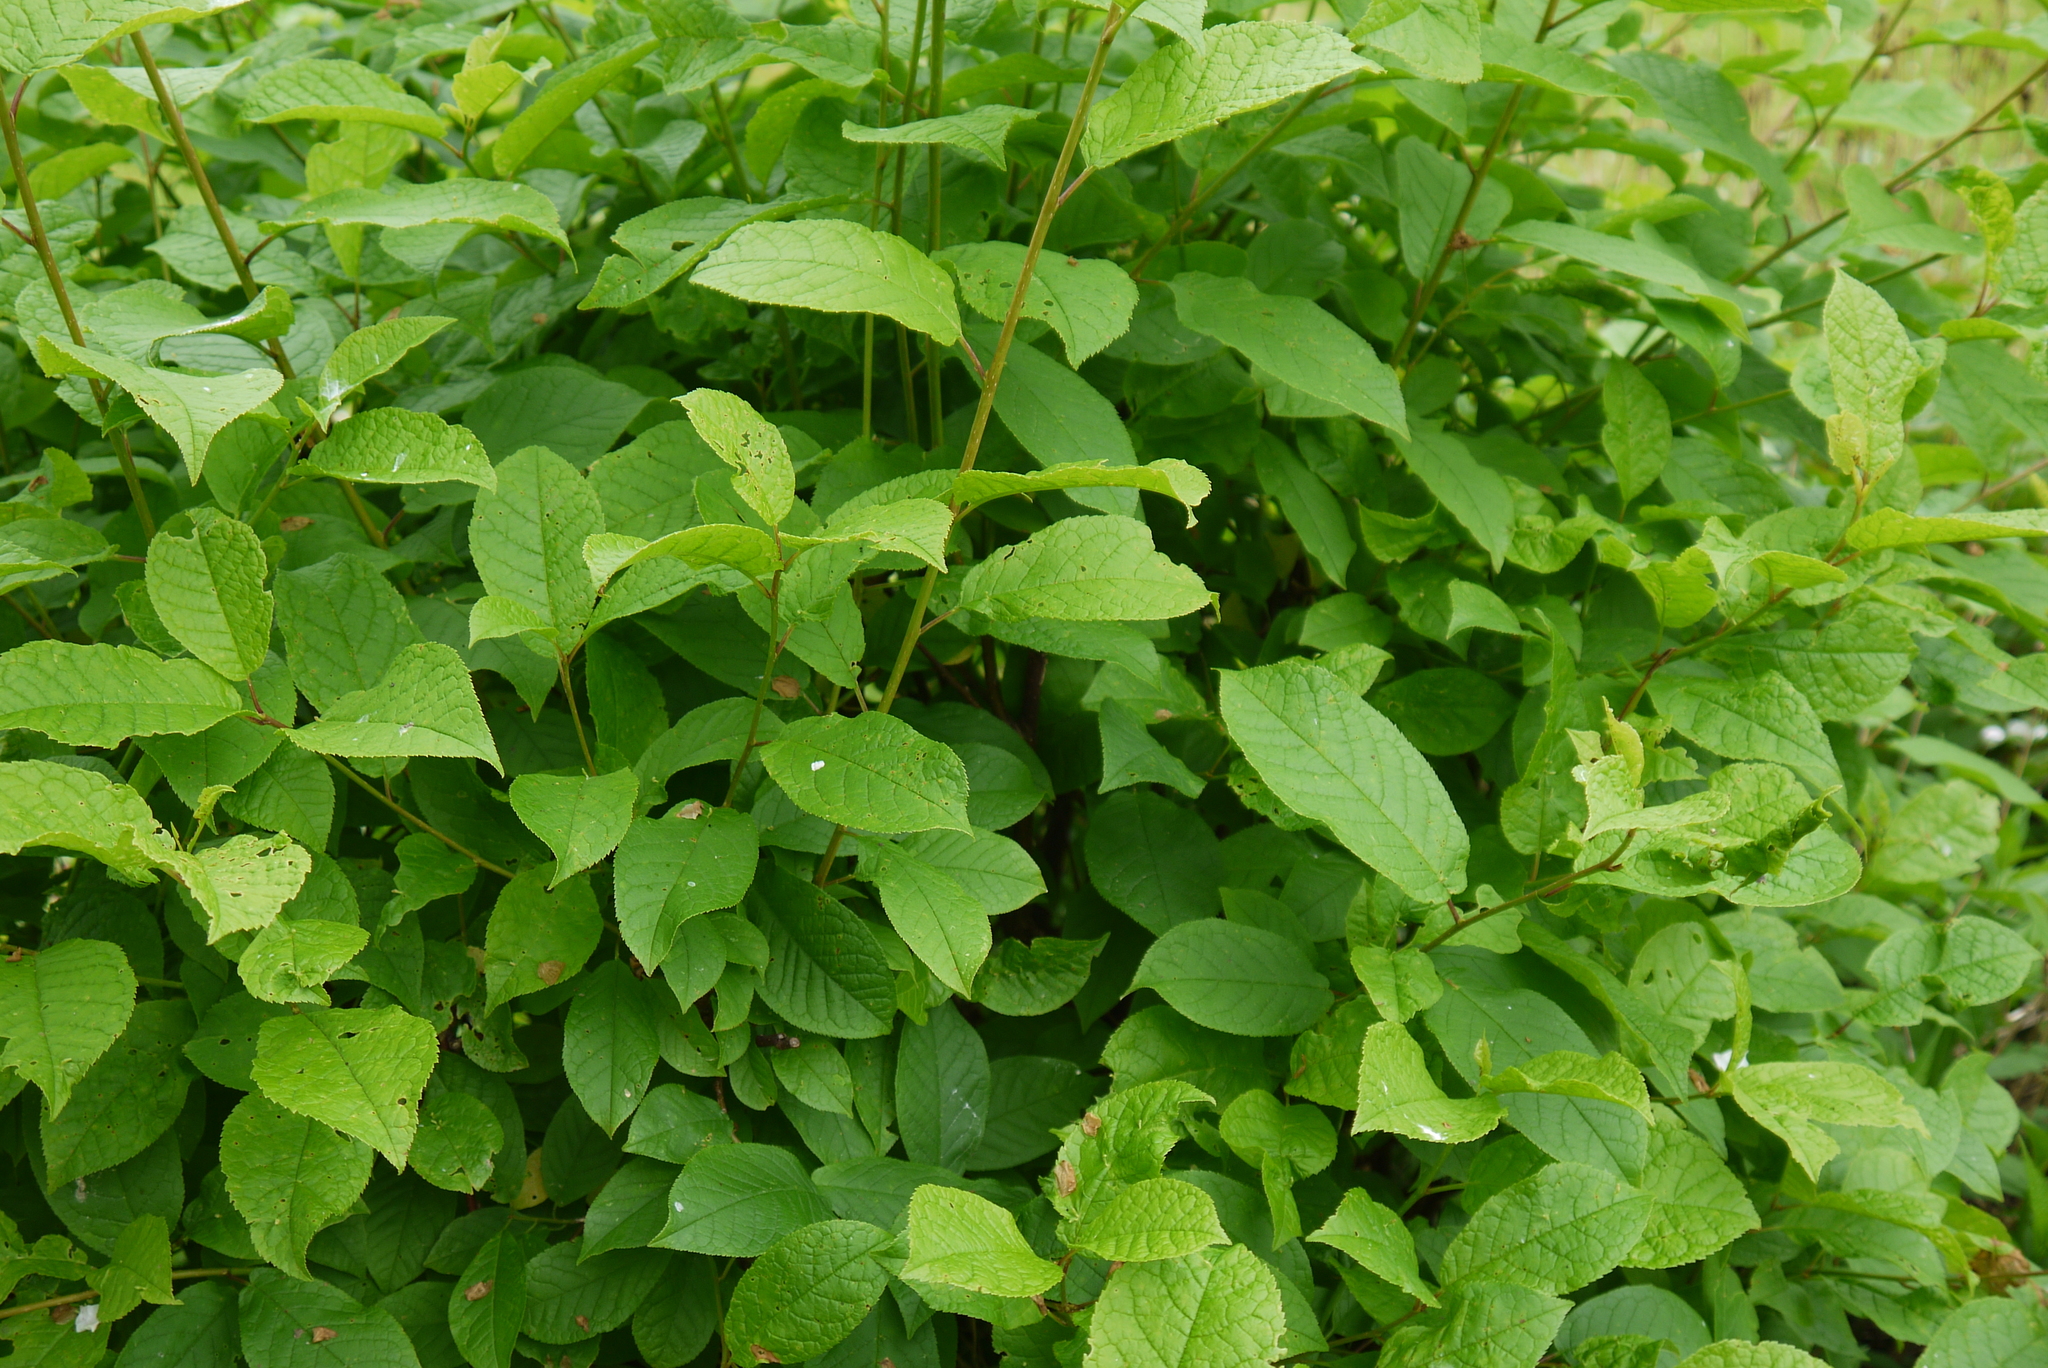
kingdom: Plantae
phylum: Tracheophyta
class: Magnoliopsida
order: Rosales
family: Rosaceae
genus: Prunus
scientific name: Prunus padus
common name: Bird cherry
